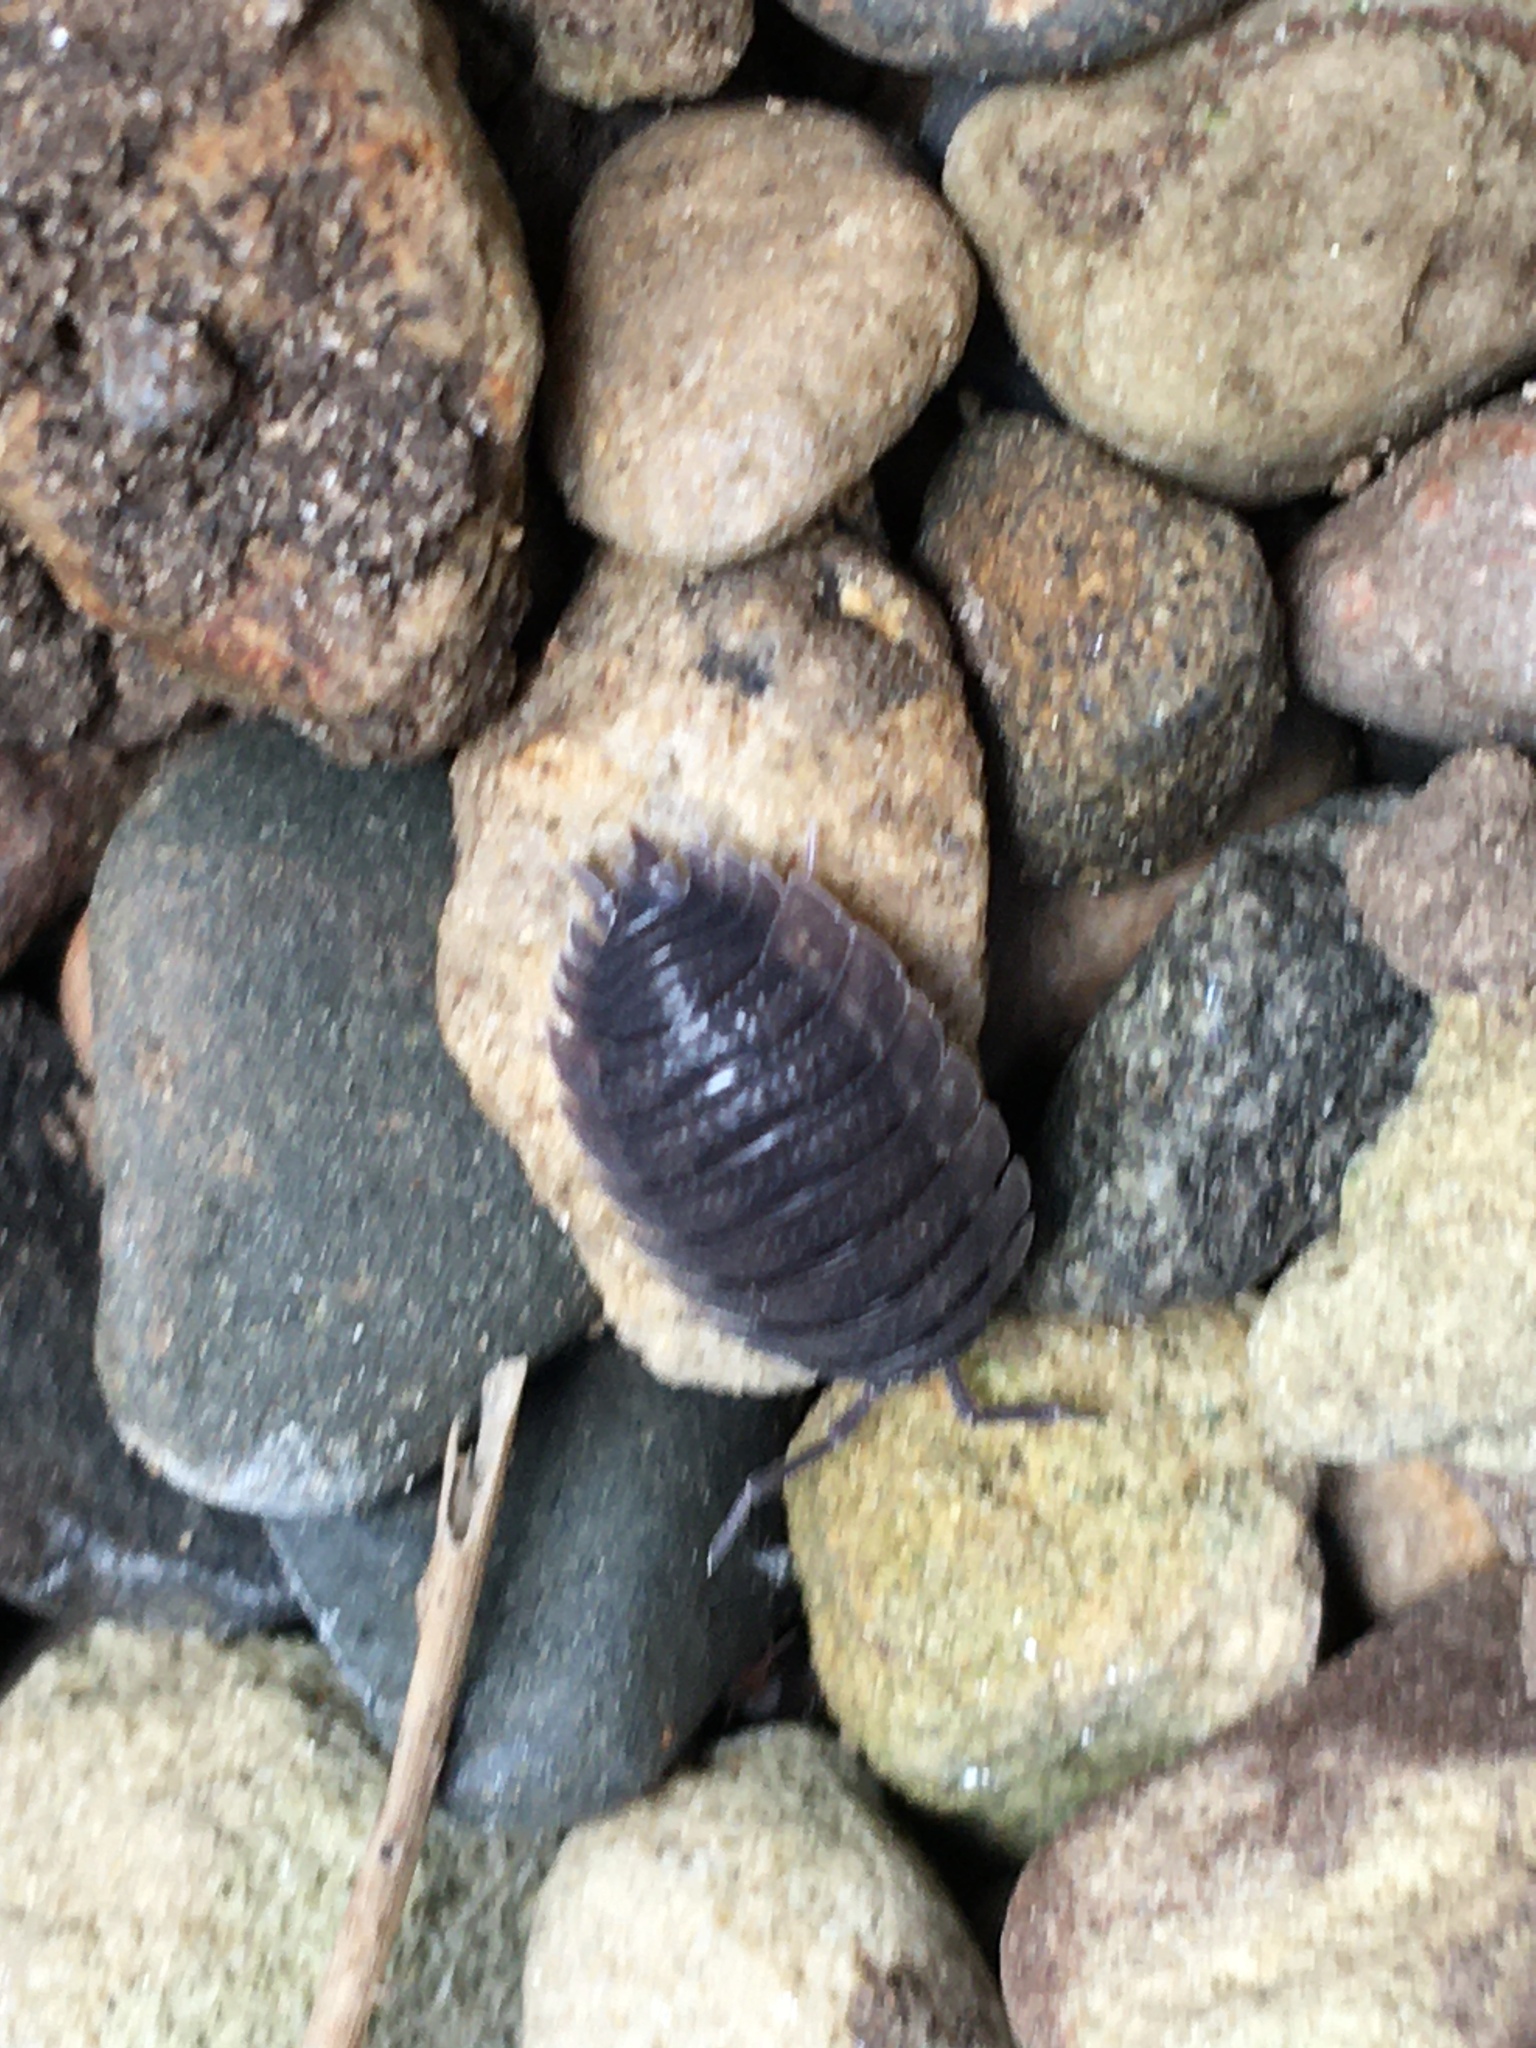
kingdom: Animalia
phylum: Arthropoda
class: Malacostraca
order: Isopoda
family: Porcellionidae
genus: Porcellio
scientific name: Porcellio scaber
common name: Common rough woodlouse
